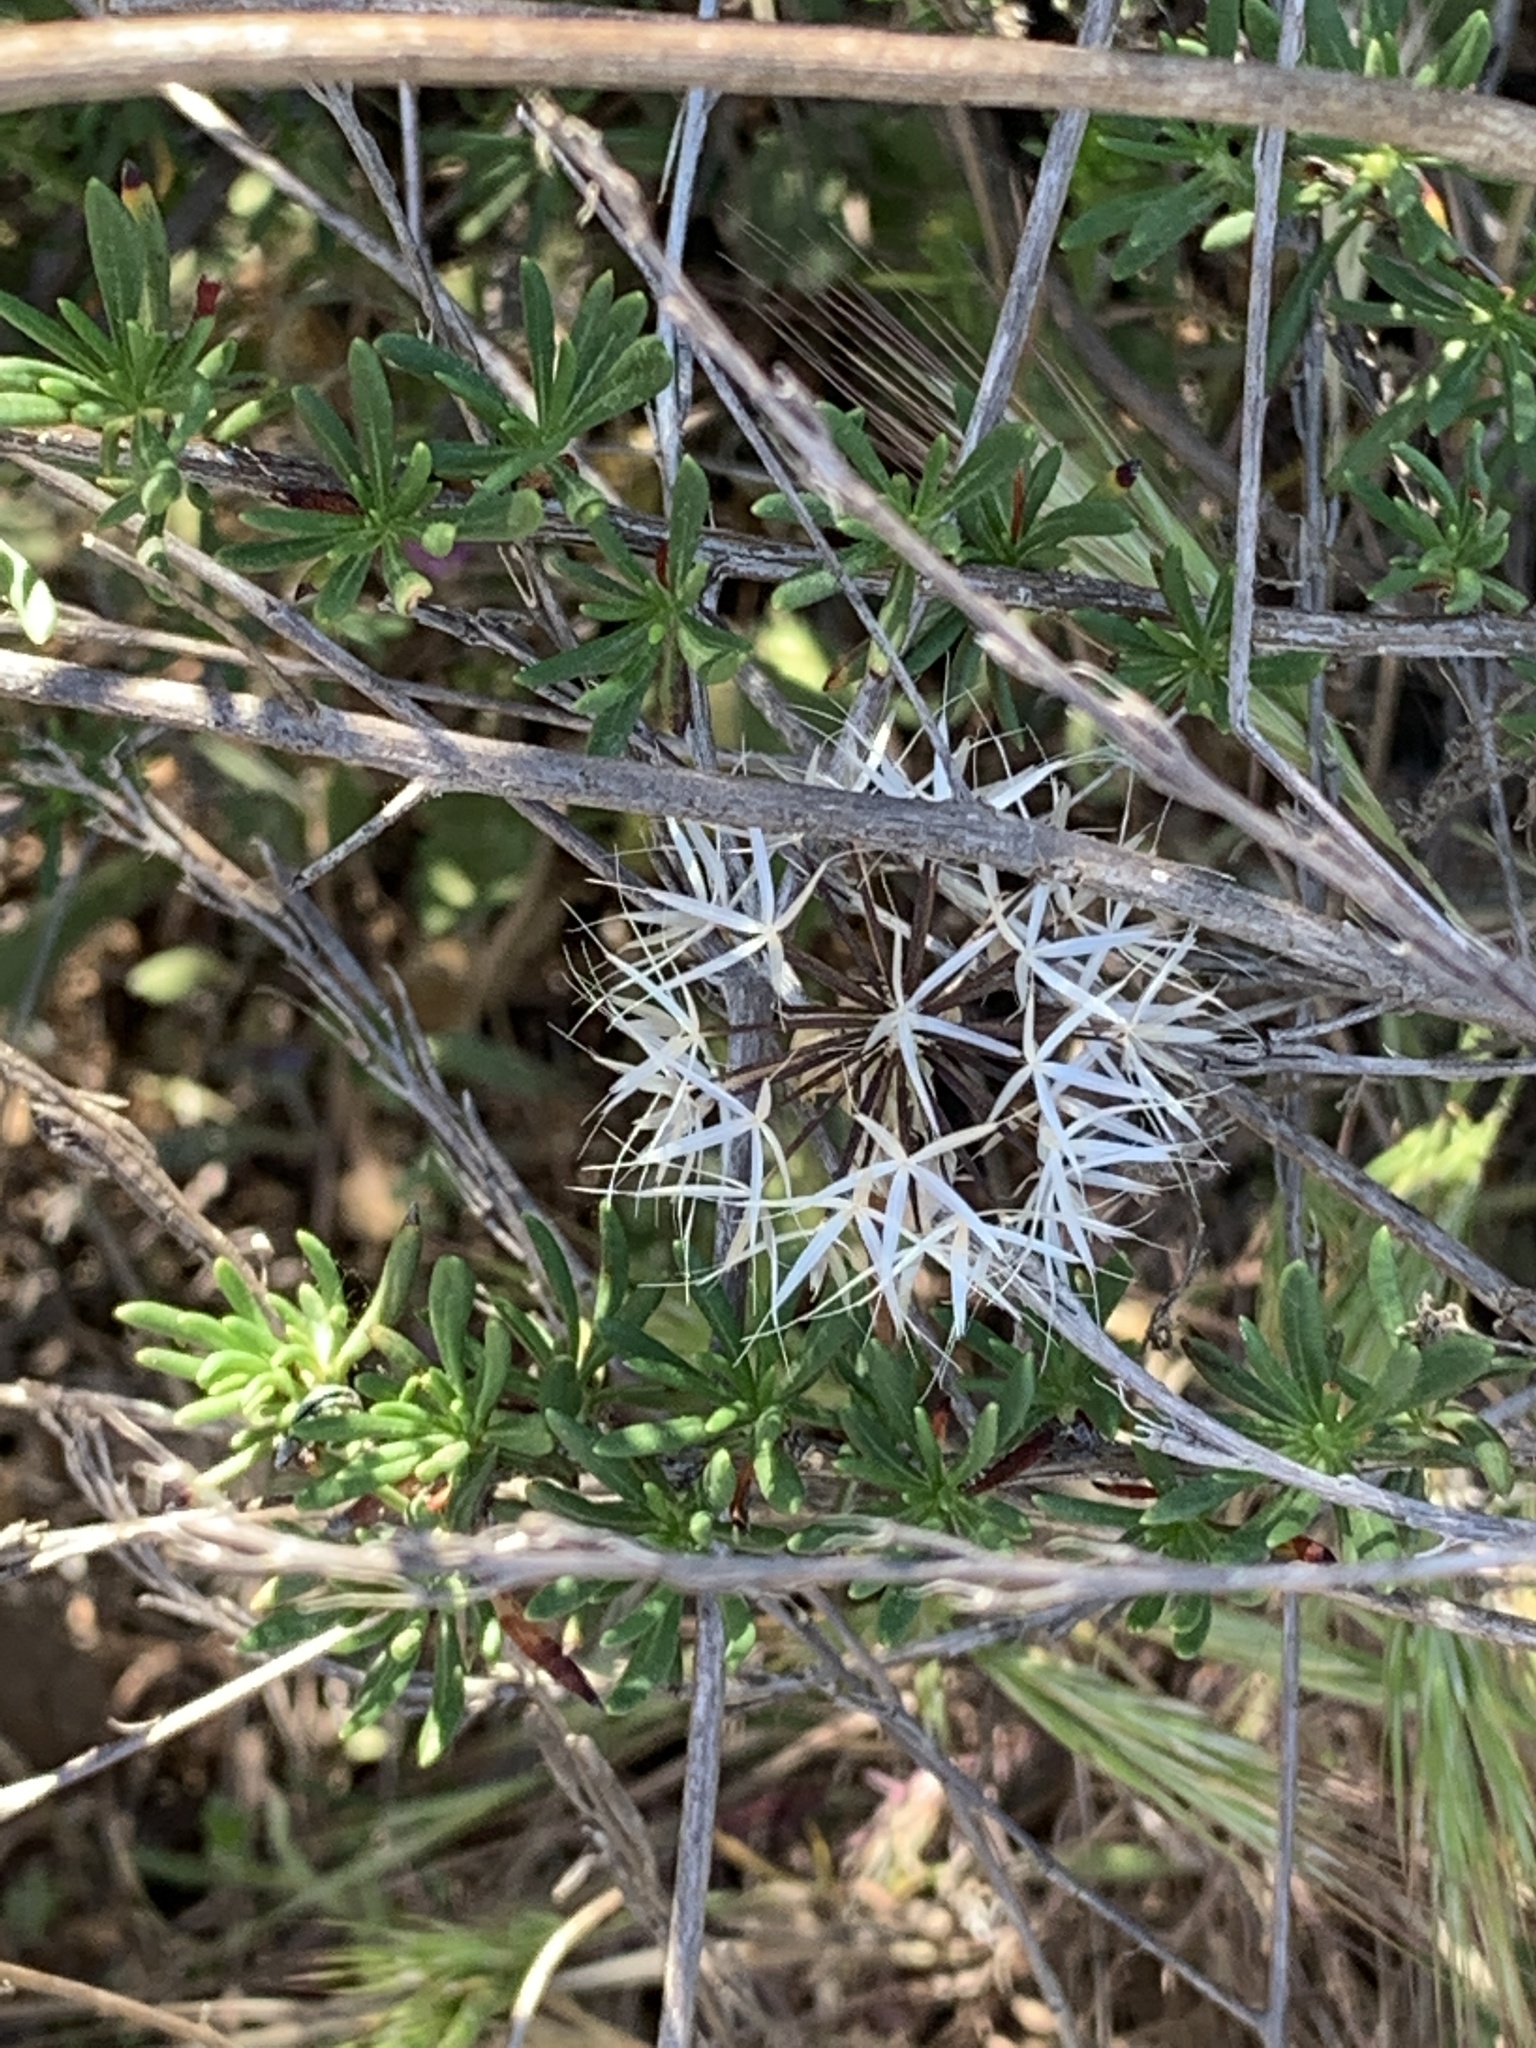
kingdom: Plantae
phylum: Tracheophyta
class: Magnoliopsida
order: Asterales
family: Asteraceae
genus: Microseris
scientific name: Microseris lindleyi
